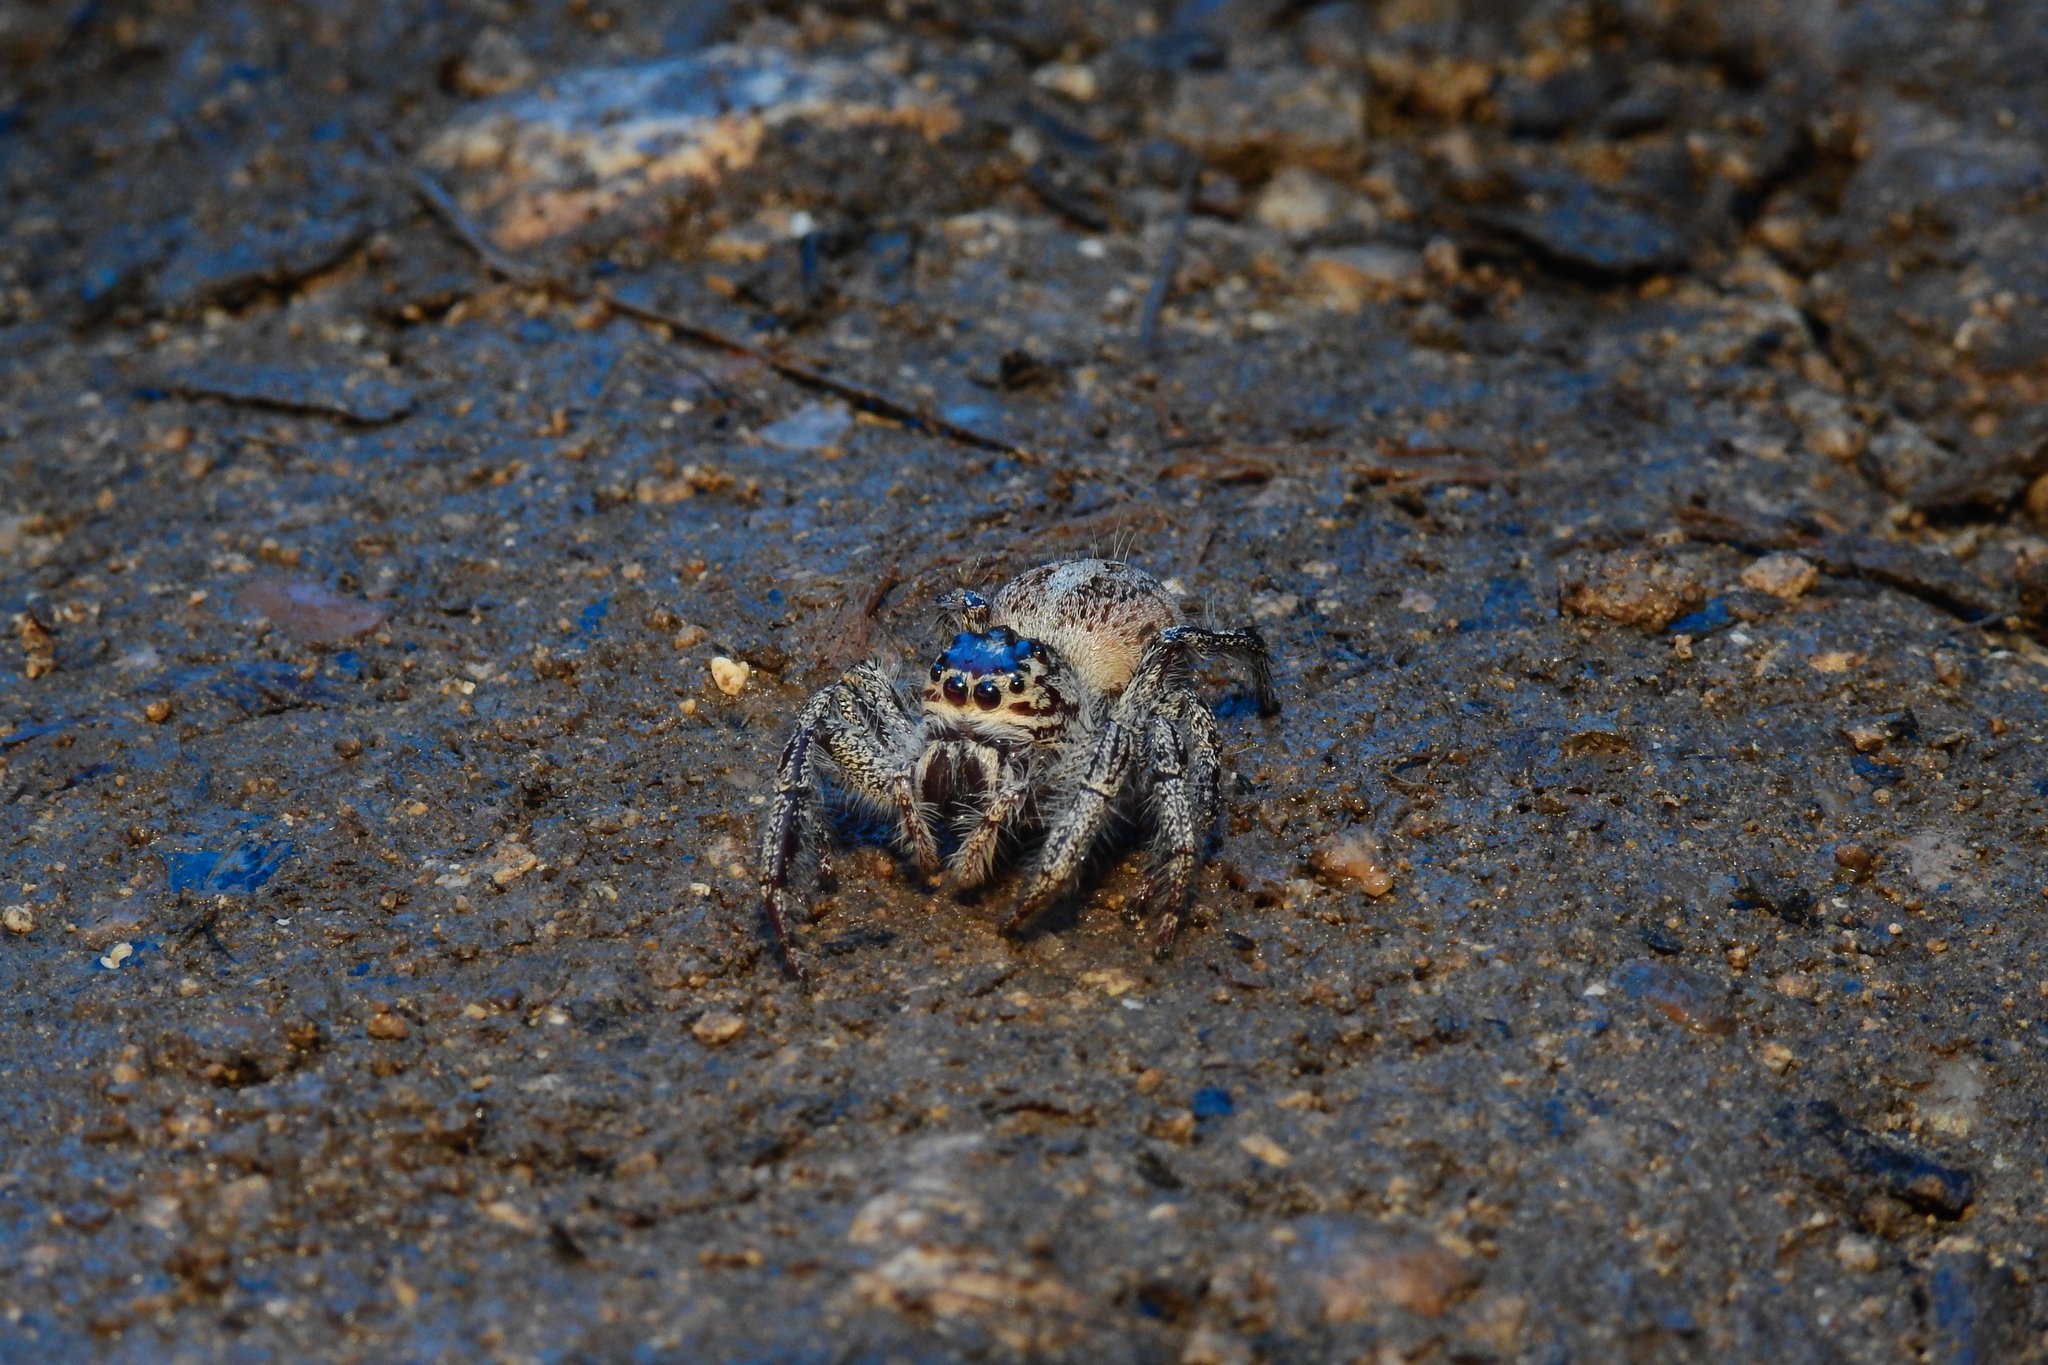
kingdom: Animalia
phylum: Arthropoda
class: Arachnida
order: Araneae
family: Salticidae
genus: Hyllus
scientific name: Hyllus giganteus
